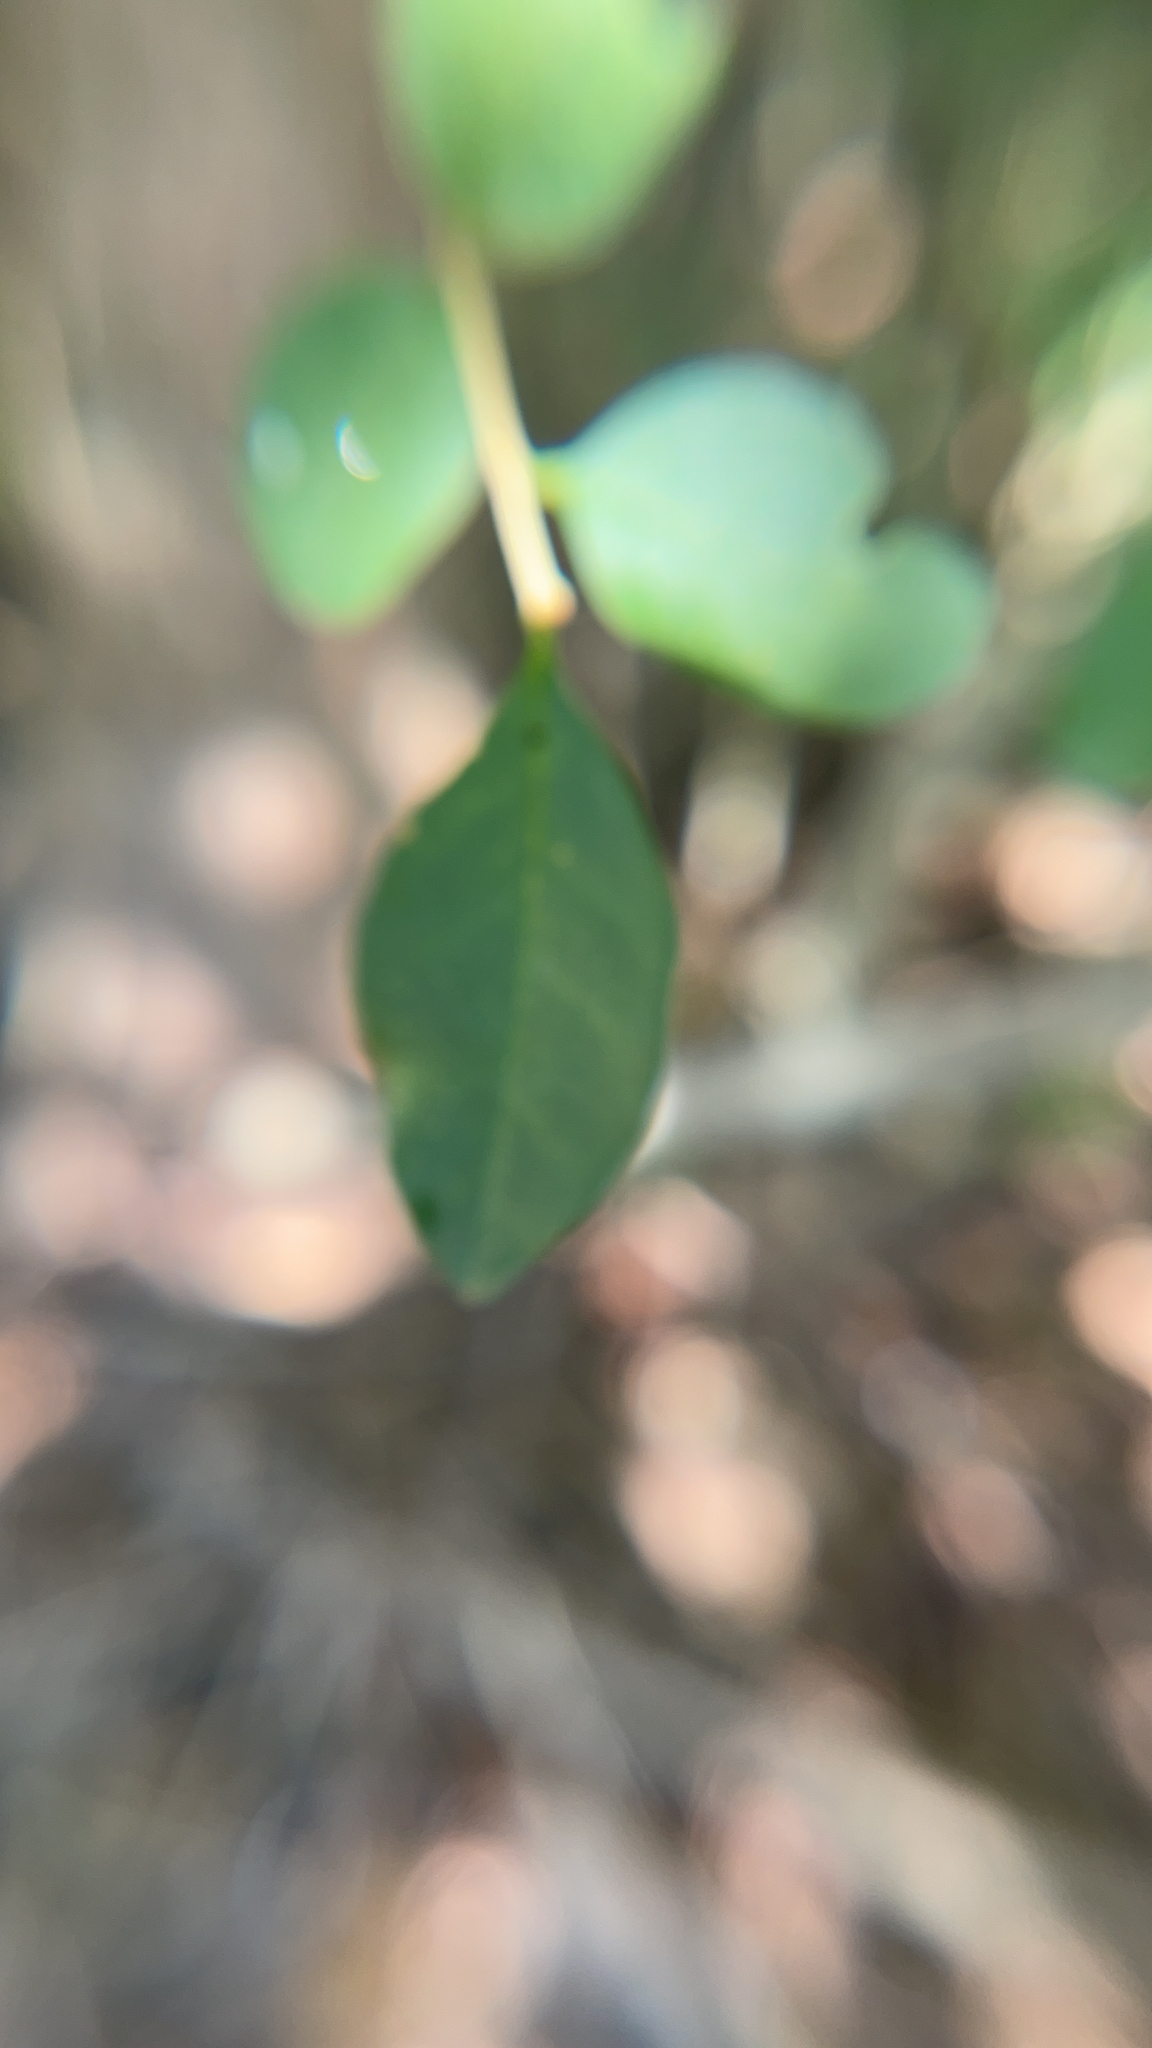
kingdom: Plantae
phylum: Tracheophyta
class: Magnoliopsida
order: Lamiales
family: Oleaceae
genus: Ligustrum
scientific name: Ligustrum sinense
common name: Chinese privet
